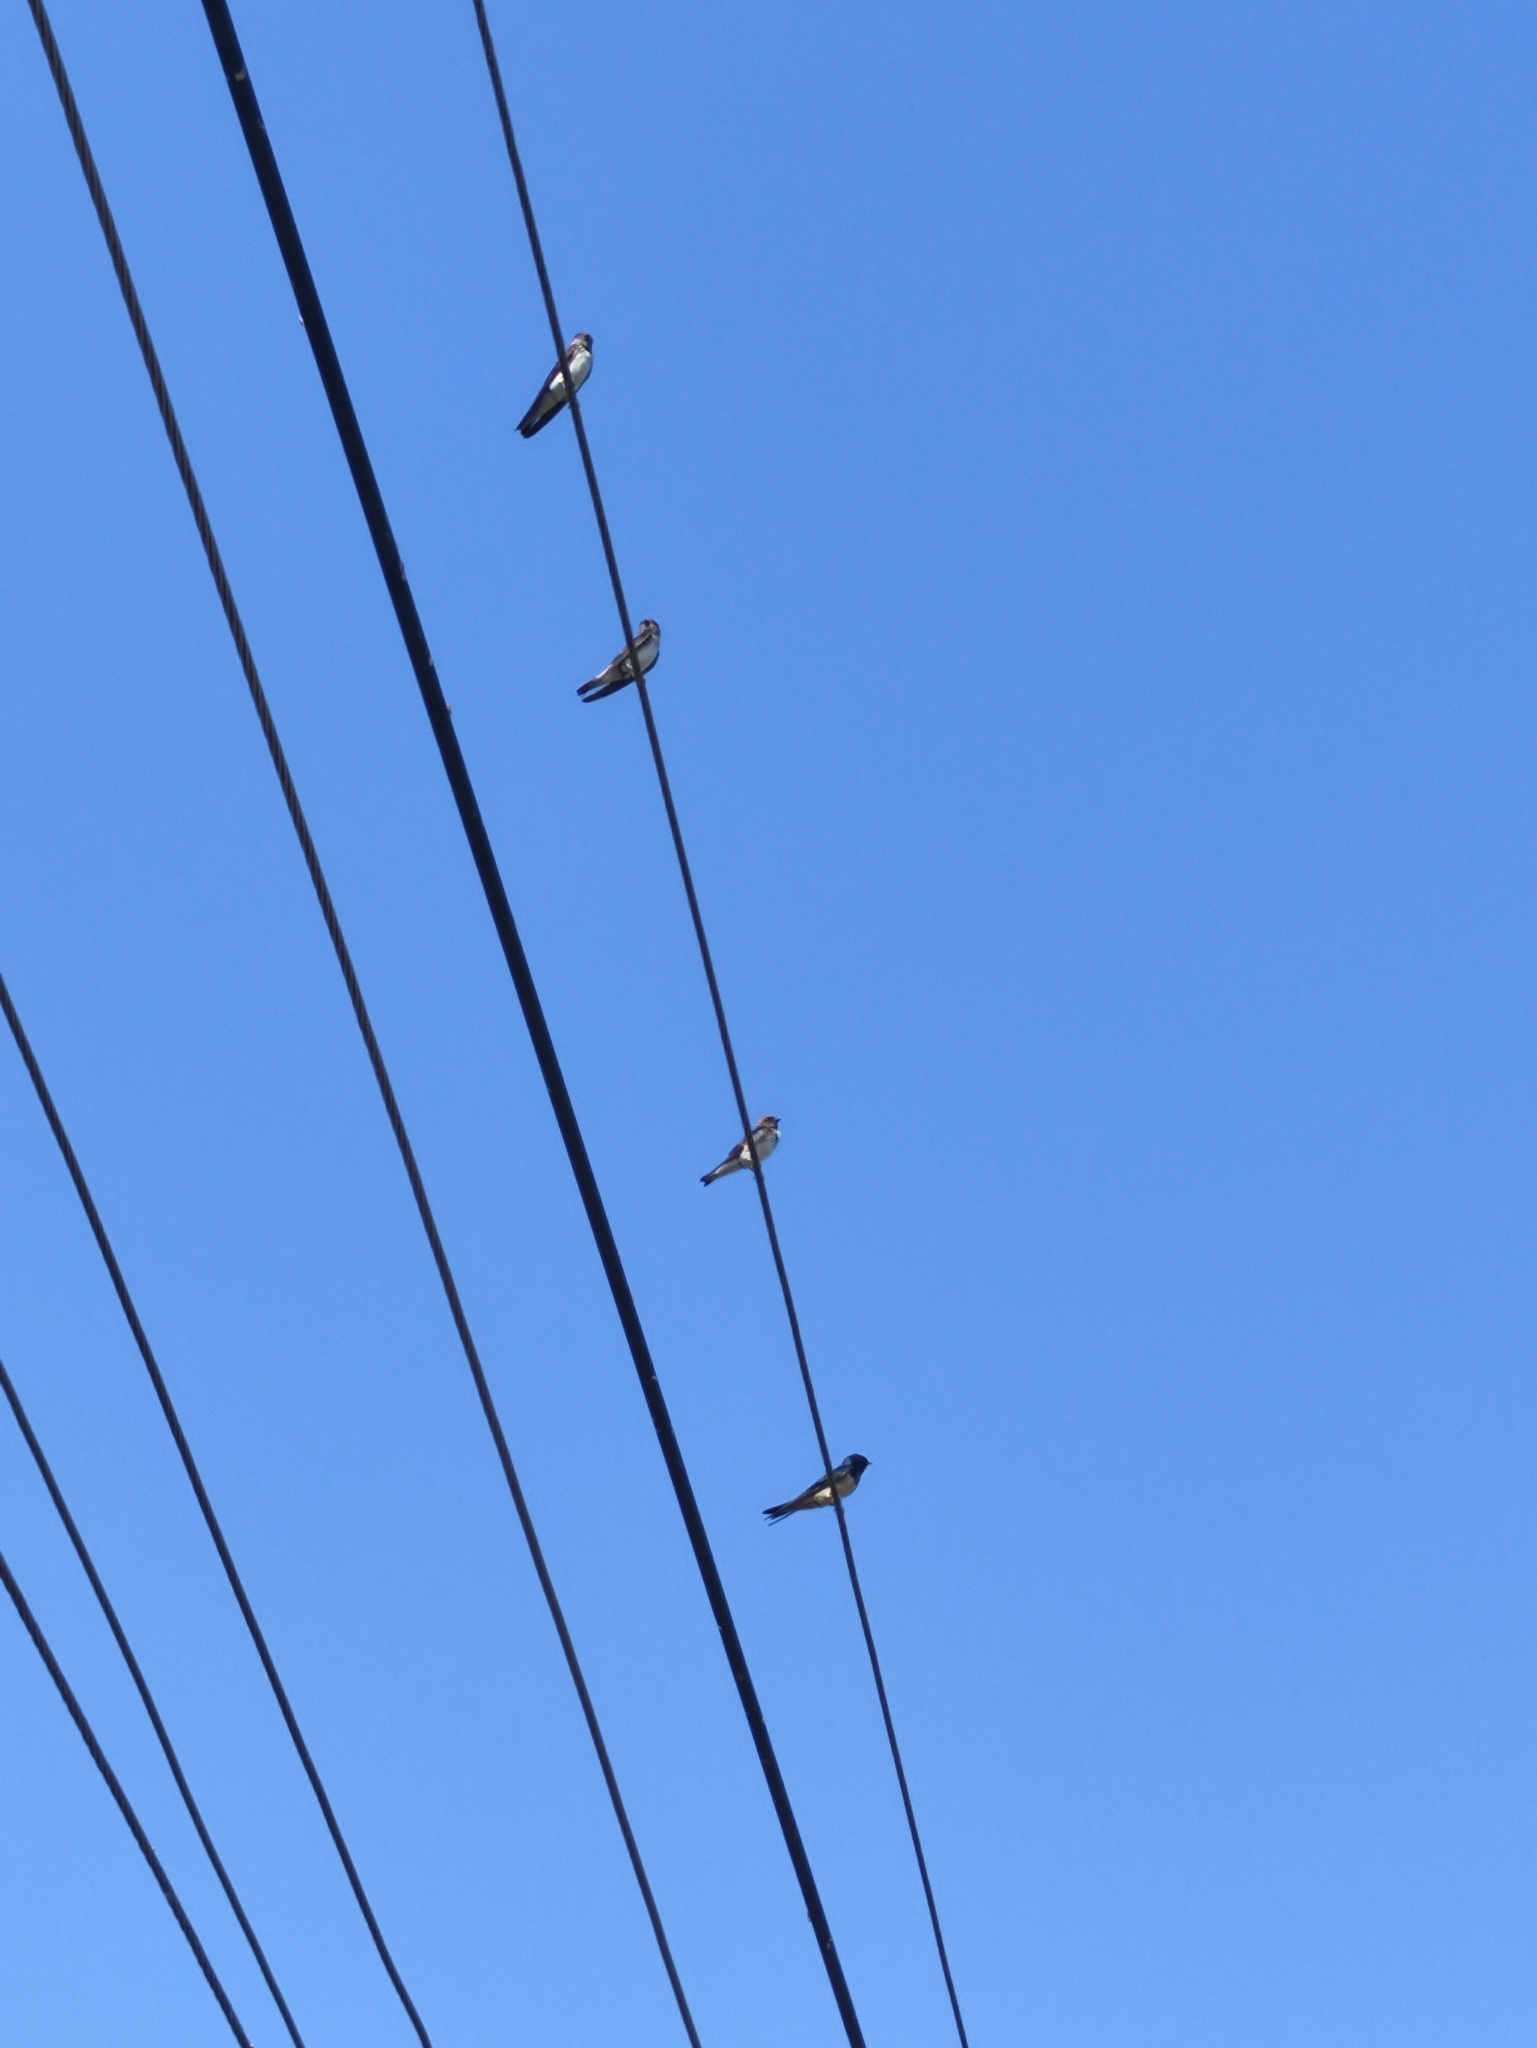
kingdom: Animalia
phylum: Chordata
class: Aves
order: Passeriformes
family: Hirundinidae
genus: Hirundo
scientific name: Hirundo rustica
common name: Barn swallow
